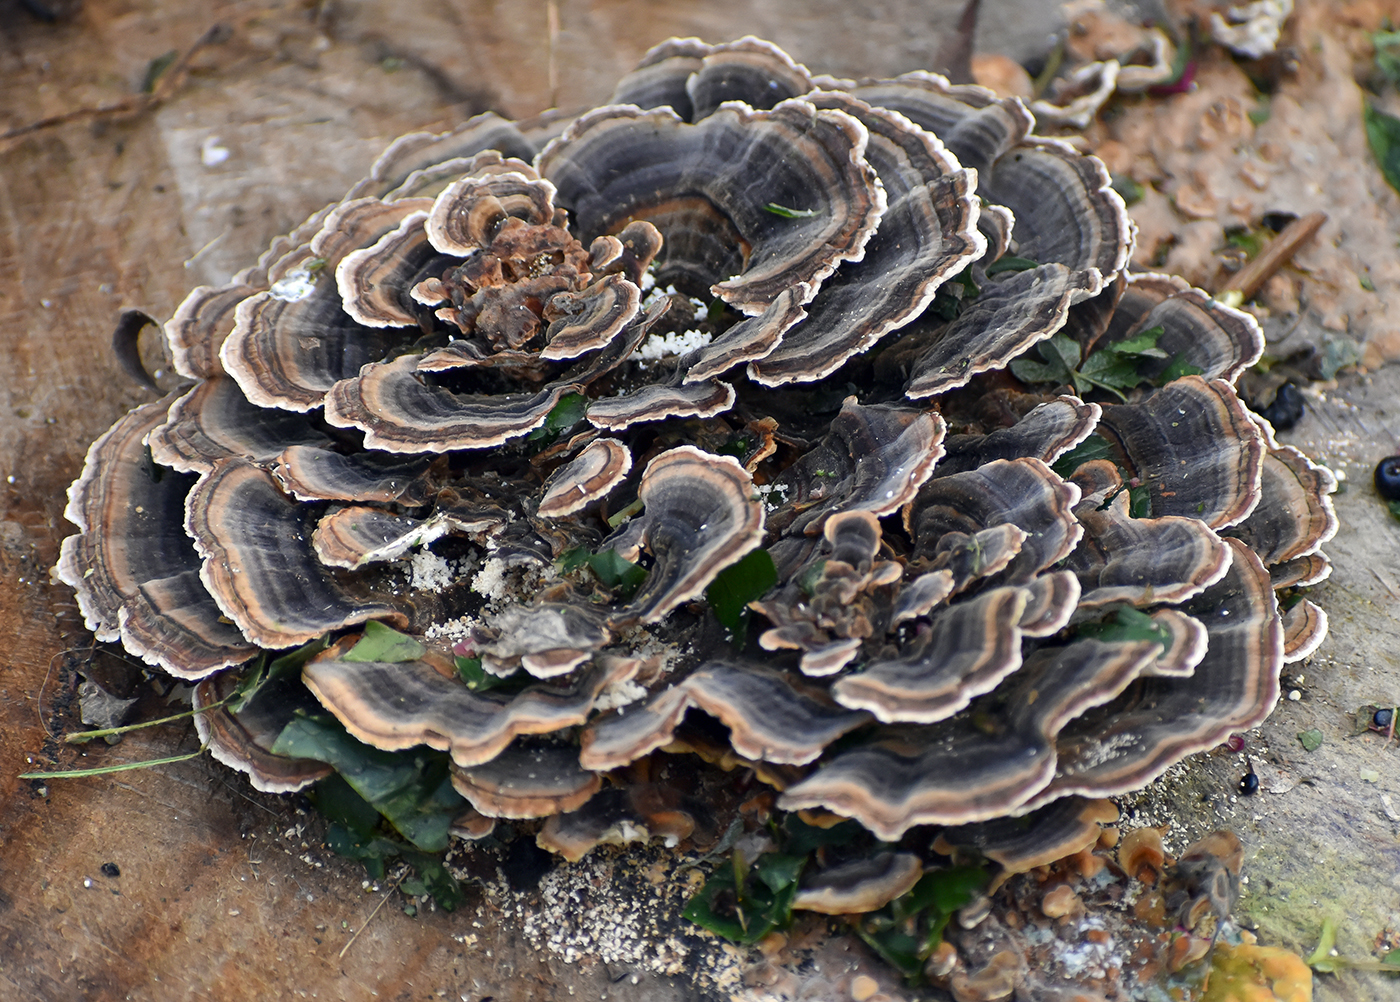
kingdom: Fungi
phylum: Basidiomycota
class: Agaricomycetes
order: Polyporales
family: Polyporaceae
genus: Trametes
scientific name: Trametes versicolor
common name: Turkeytail
